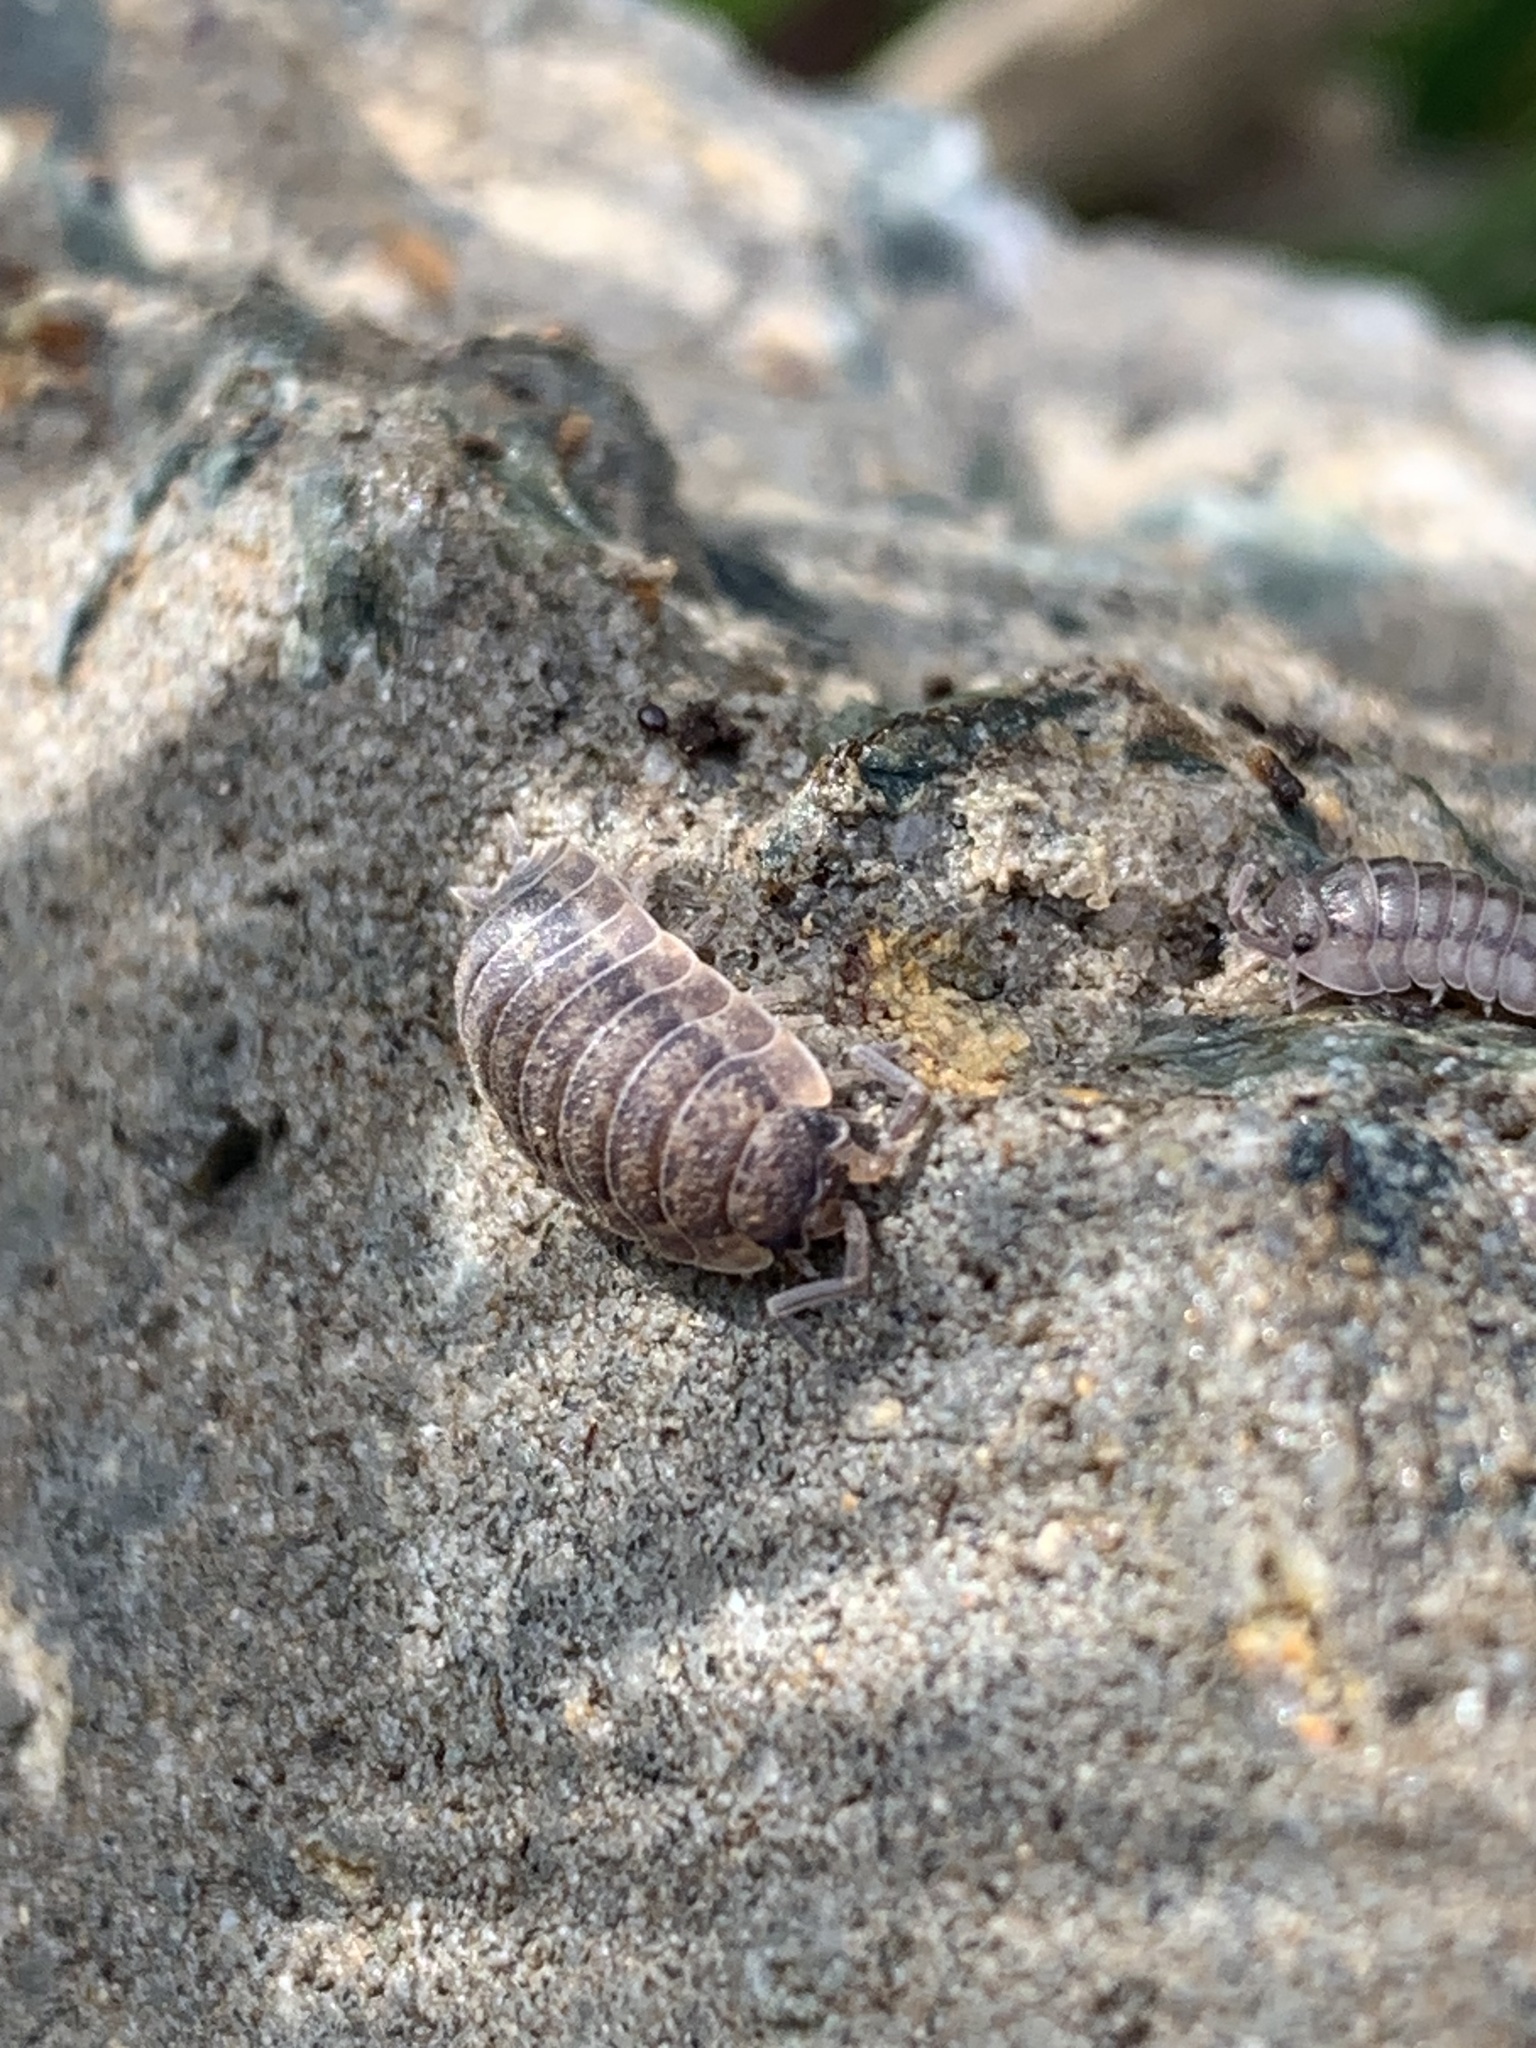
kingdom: Animalia
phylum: Arthropoda
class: Malacostraca
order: Isopoda
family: Porcellionidae
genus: Porcellio
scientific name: Porcellio scaber
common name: Common rough woodlouse
